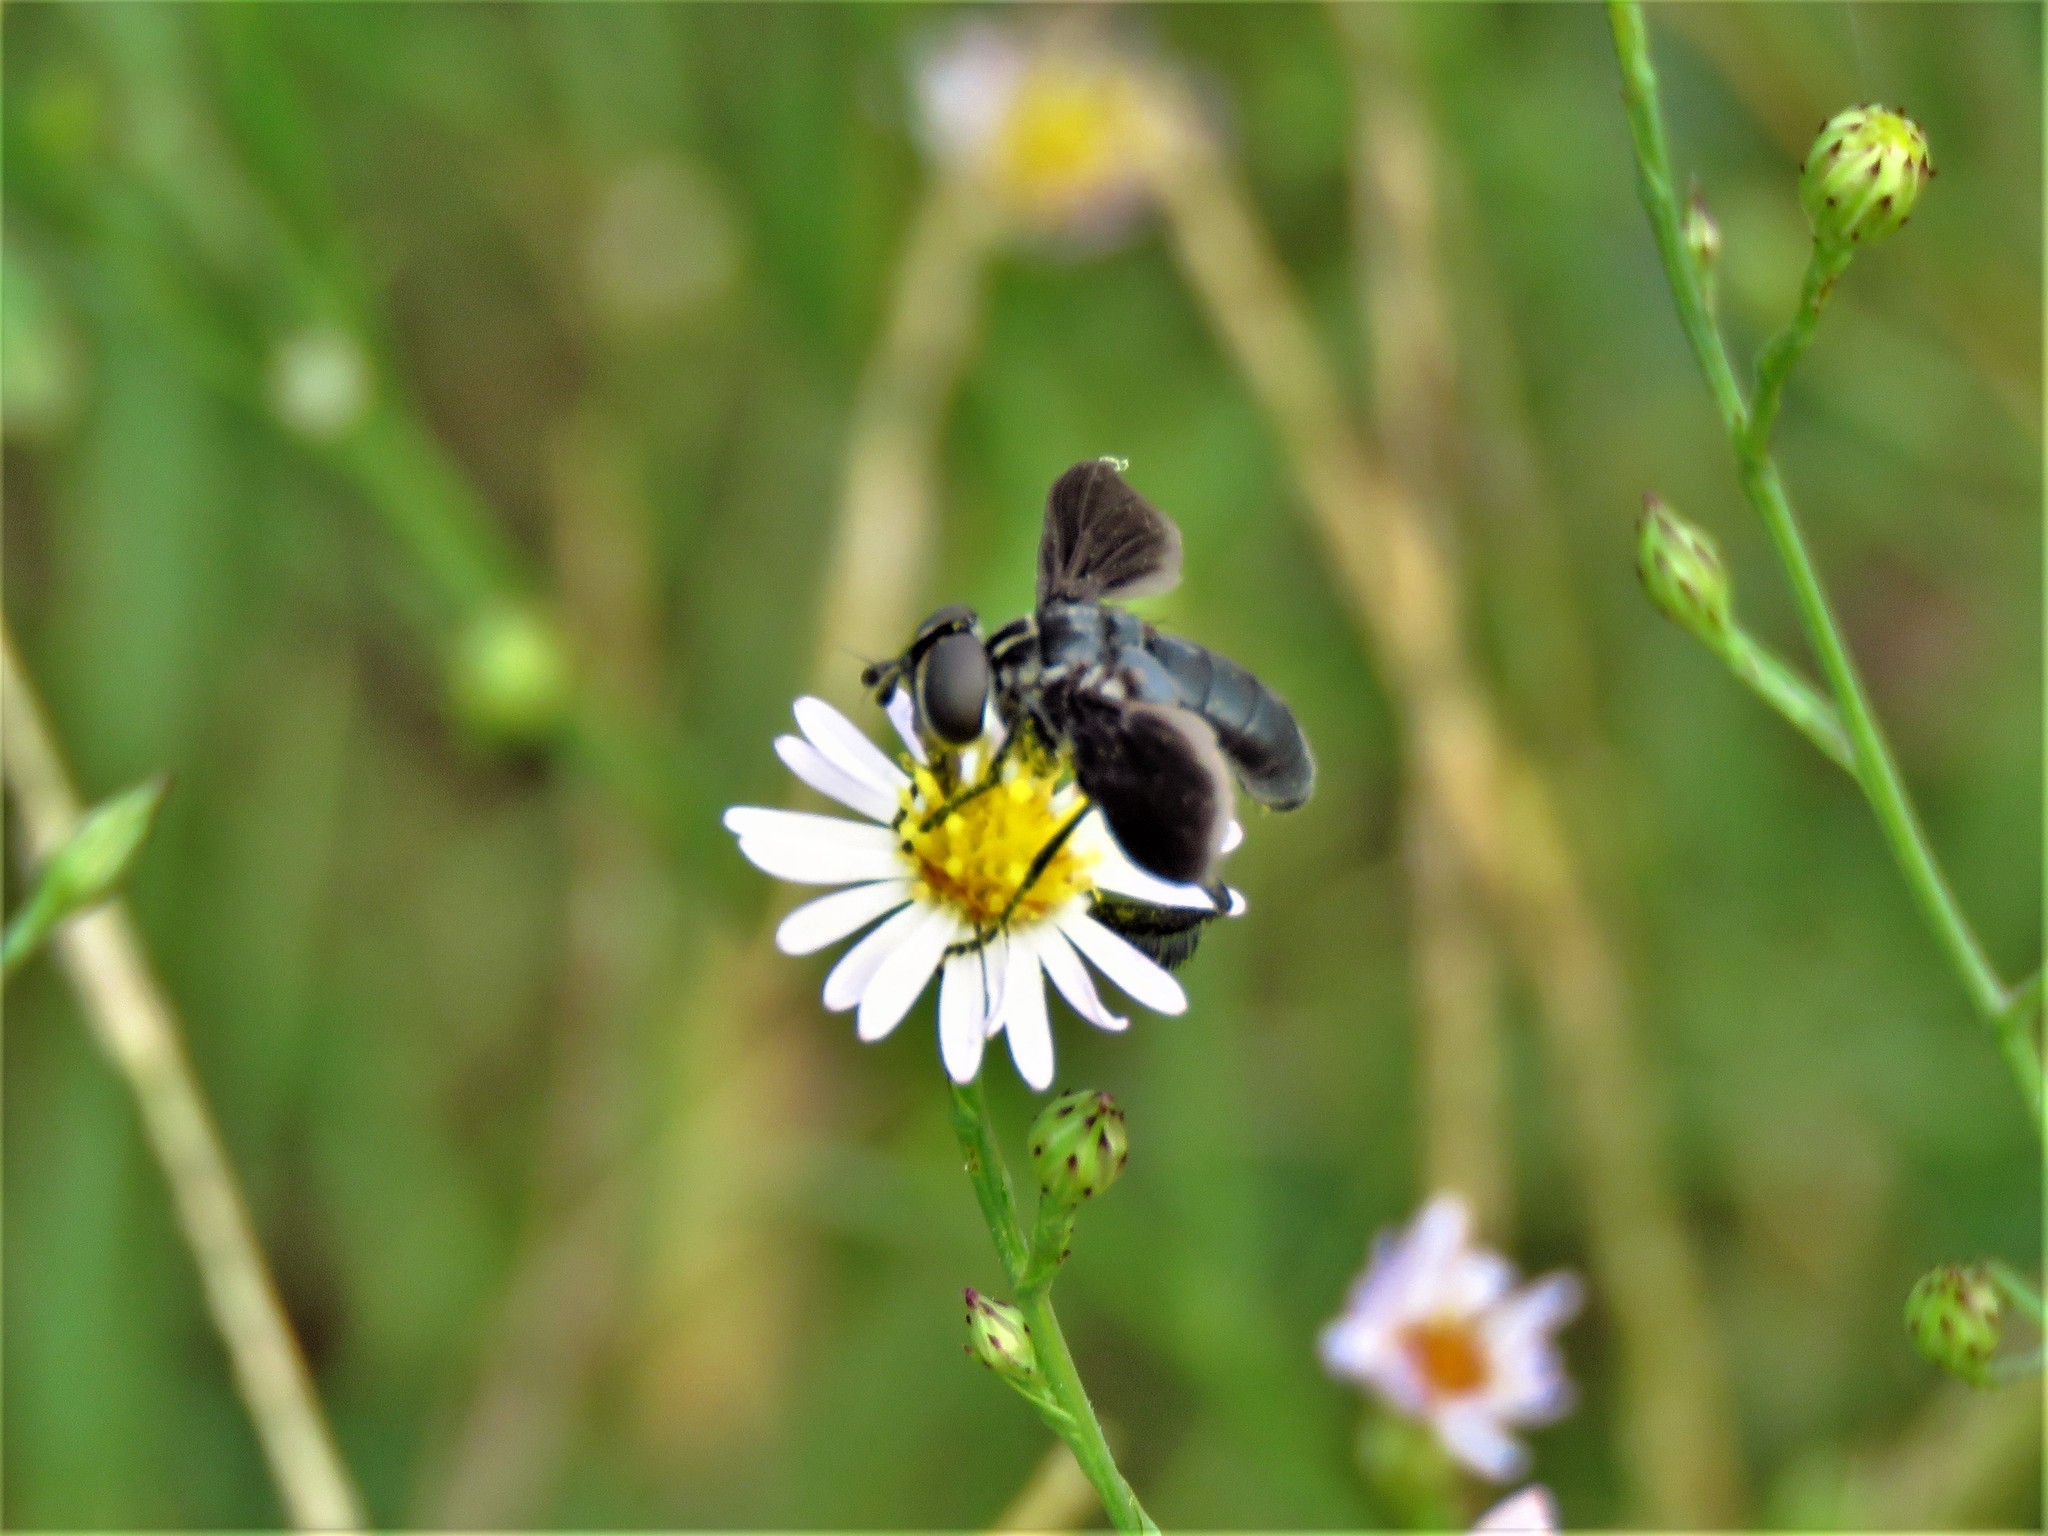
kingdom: Animalia
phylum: Arthropoda
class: Insecta
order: Diptera
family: Tachinidae
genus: Trichopoda
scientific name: Trichopoda lanipes
